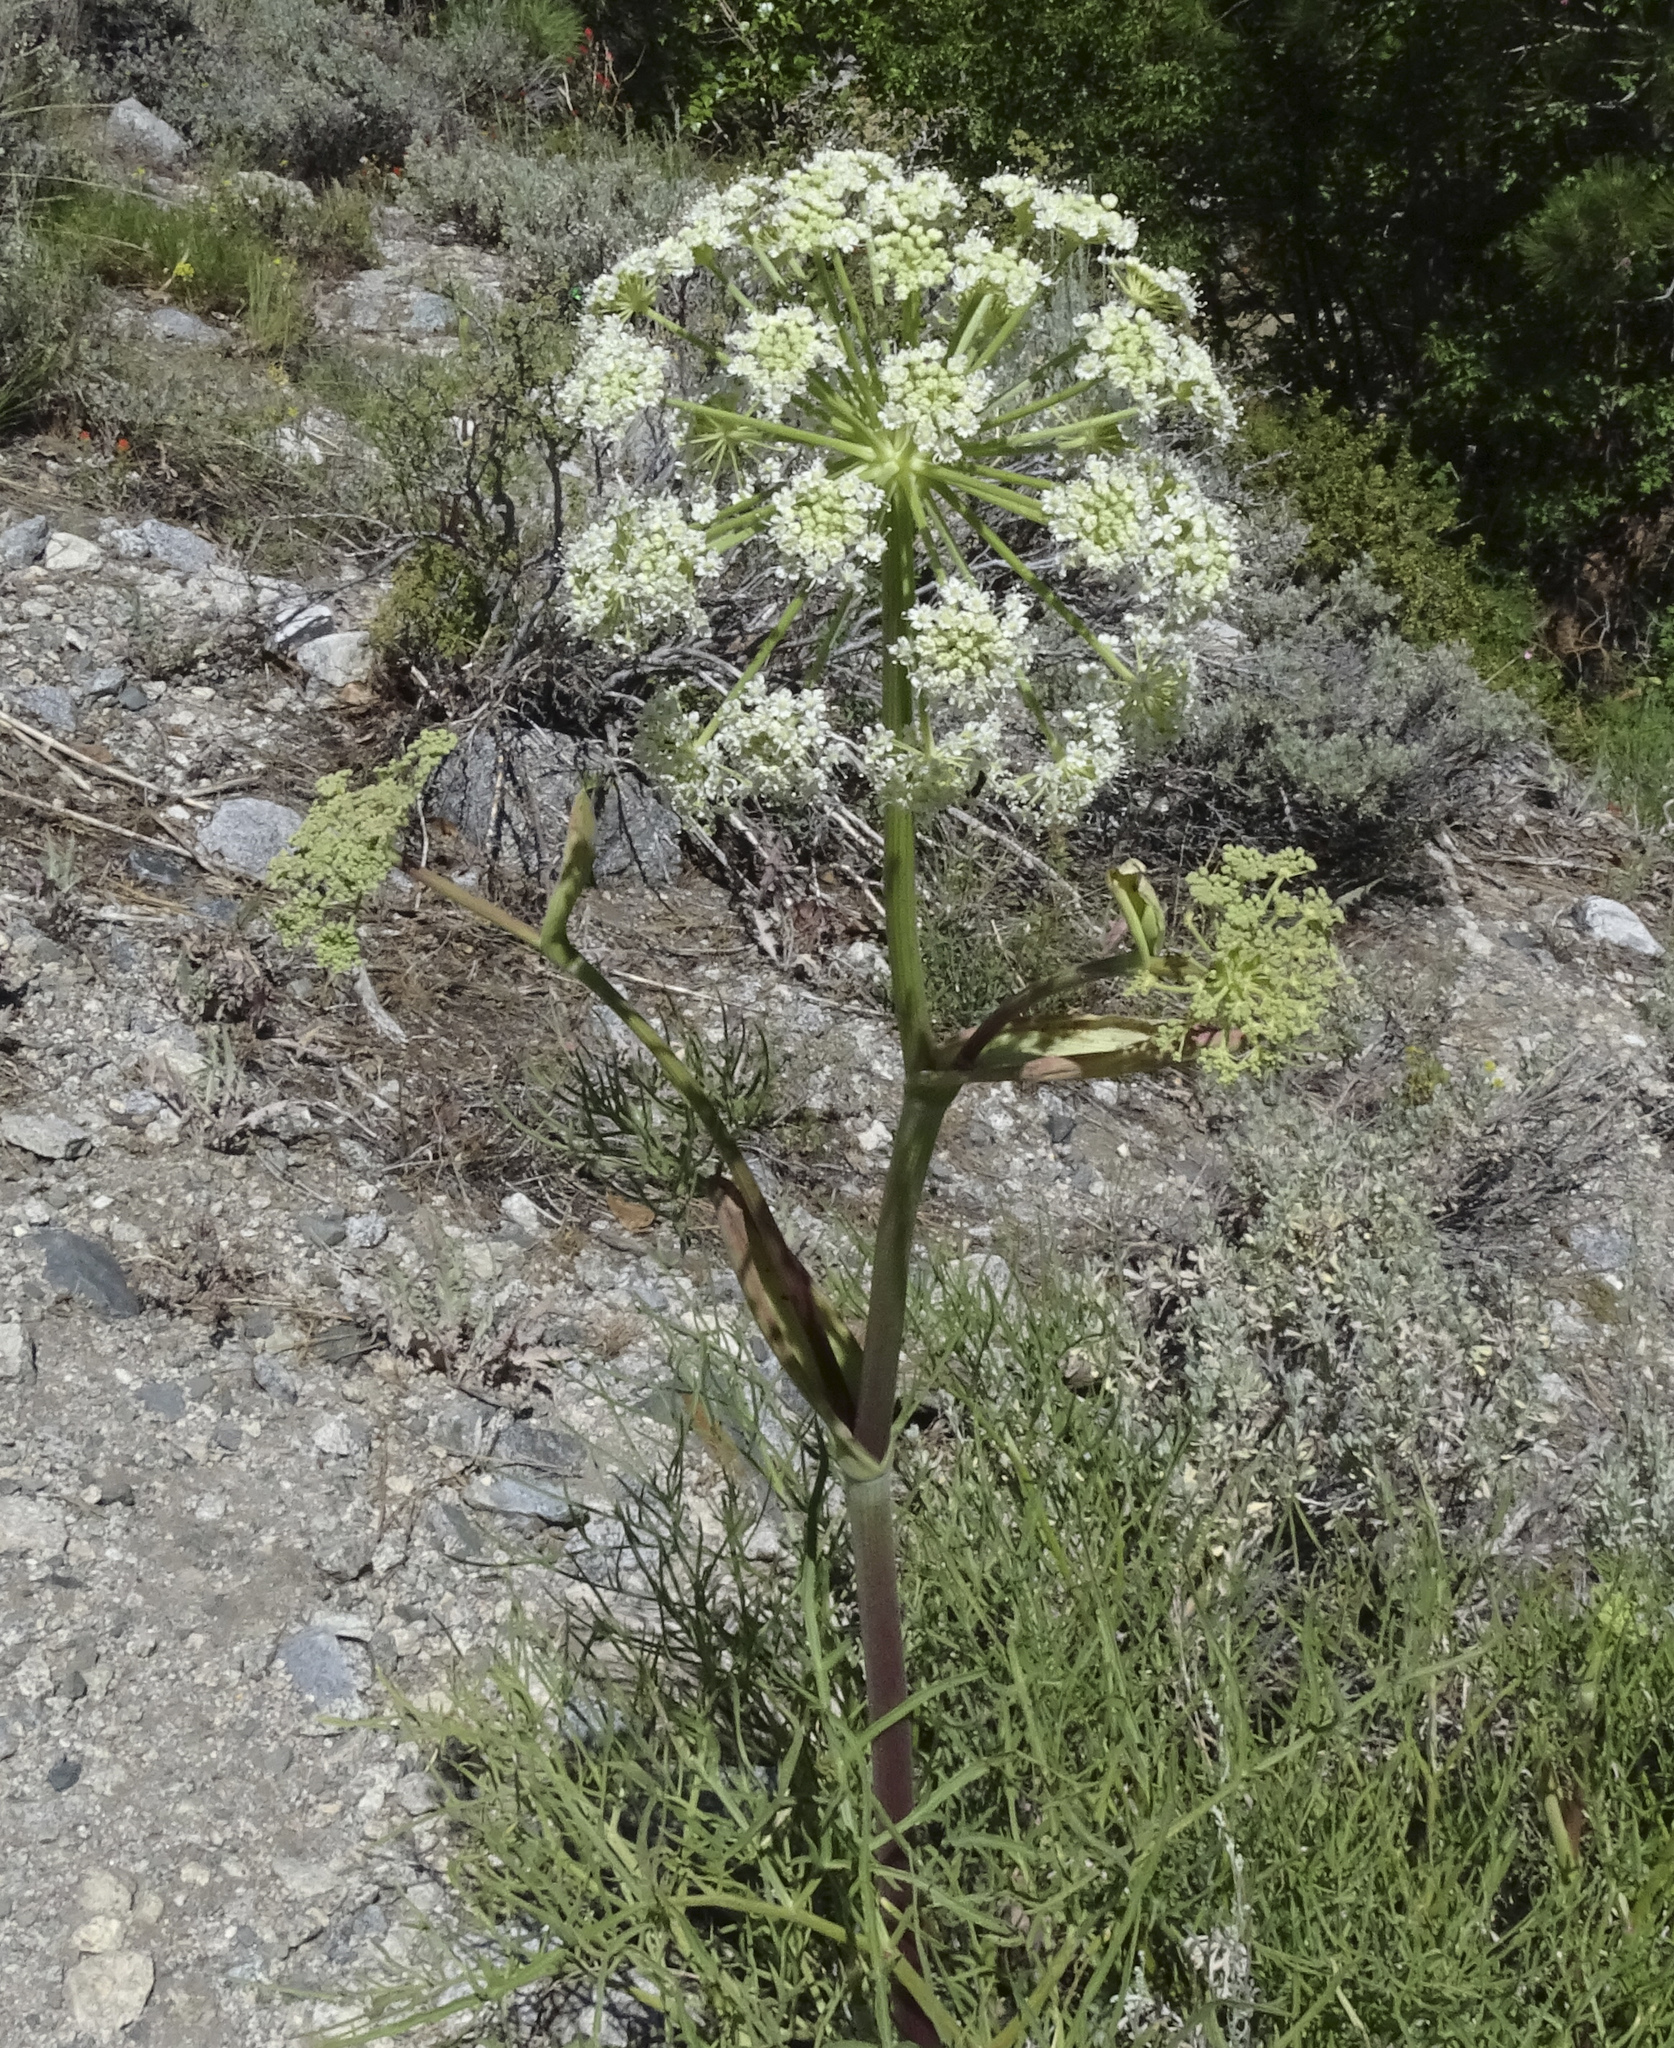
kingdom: Plantae
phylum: Tracheophyta
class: Magnoliopsida
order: Apiales
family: Apiaceae
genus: Angelica
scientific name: Angelica lineariloba
